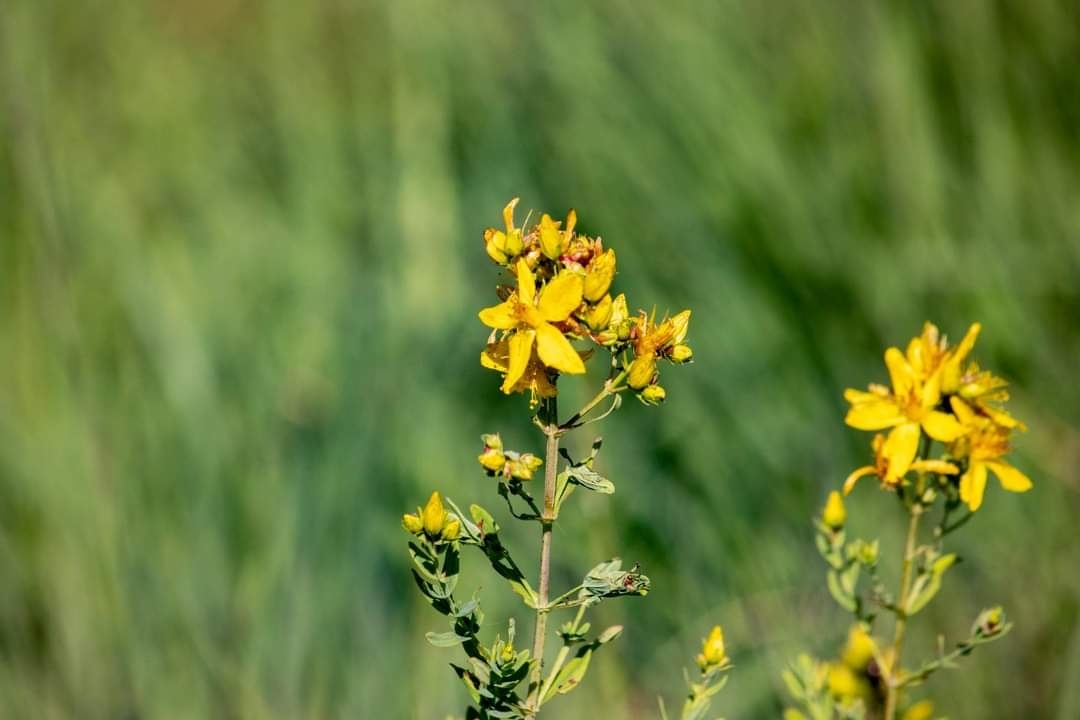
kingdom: Plantae
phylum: Tracheophyta
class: Magnoliopsida
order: Malpighiales
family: Hypericaceae
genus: Hypericum
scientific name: Hypericum perforatum
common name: Common st. johnswort
